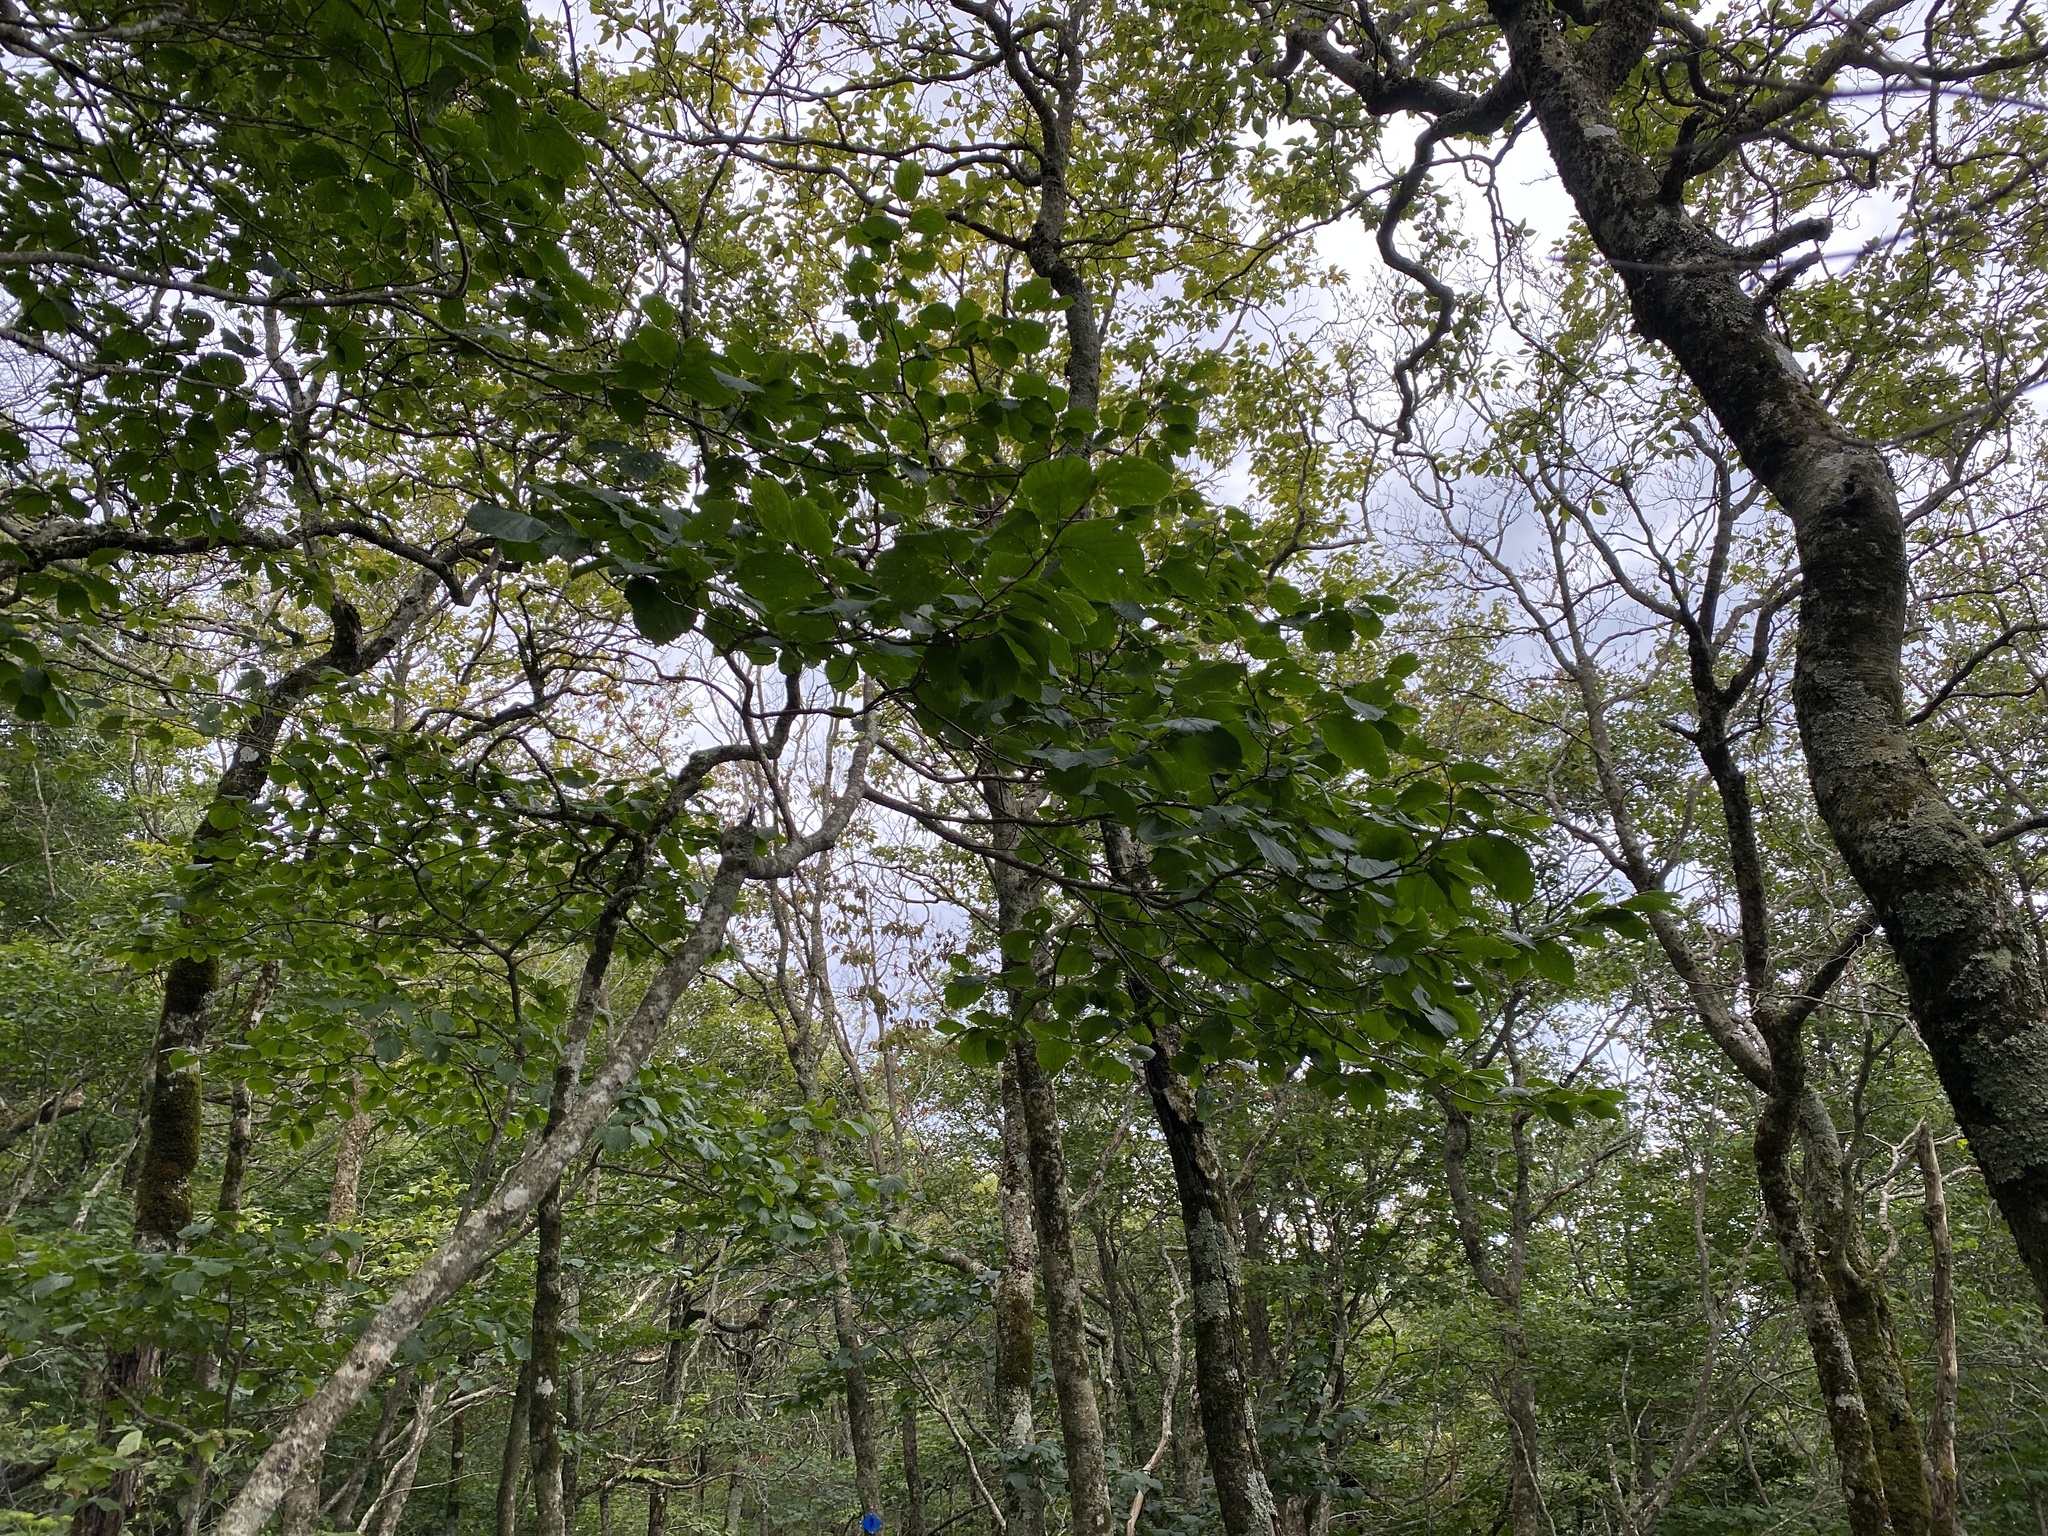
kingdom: Plantae
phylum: Tracheophyta
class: Magnoliopsida
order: Saxifragales
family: Hamamelidaceae
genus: Hamamelis
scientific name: Hamamelis virginiana
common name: Witch-hazel
